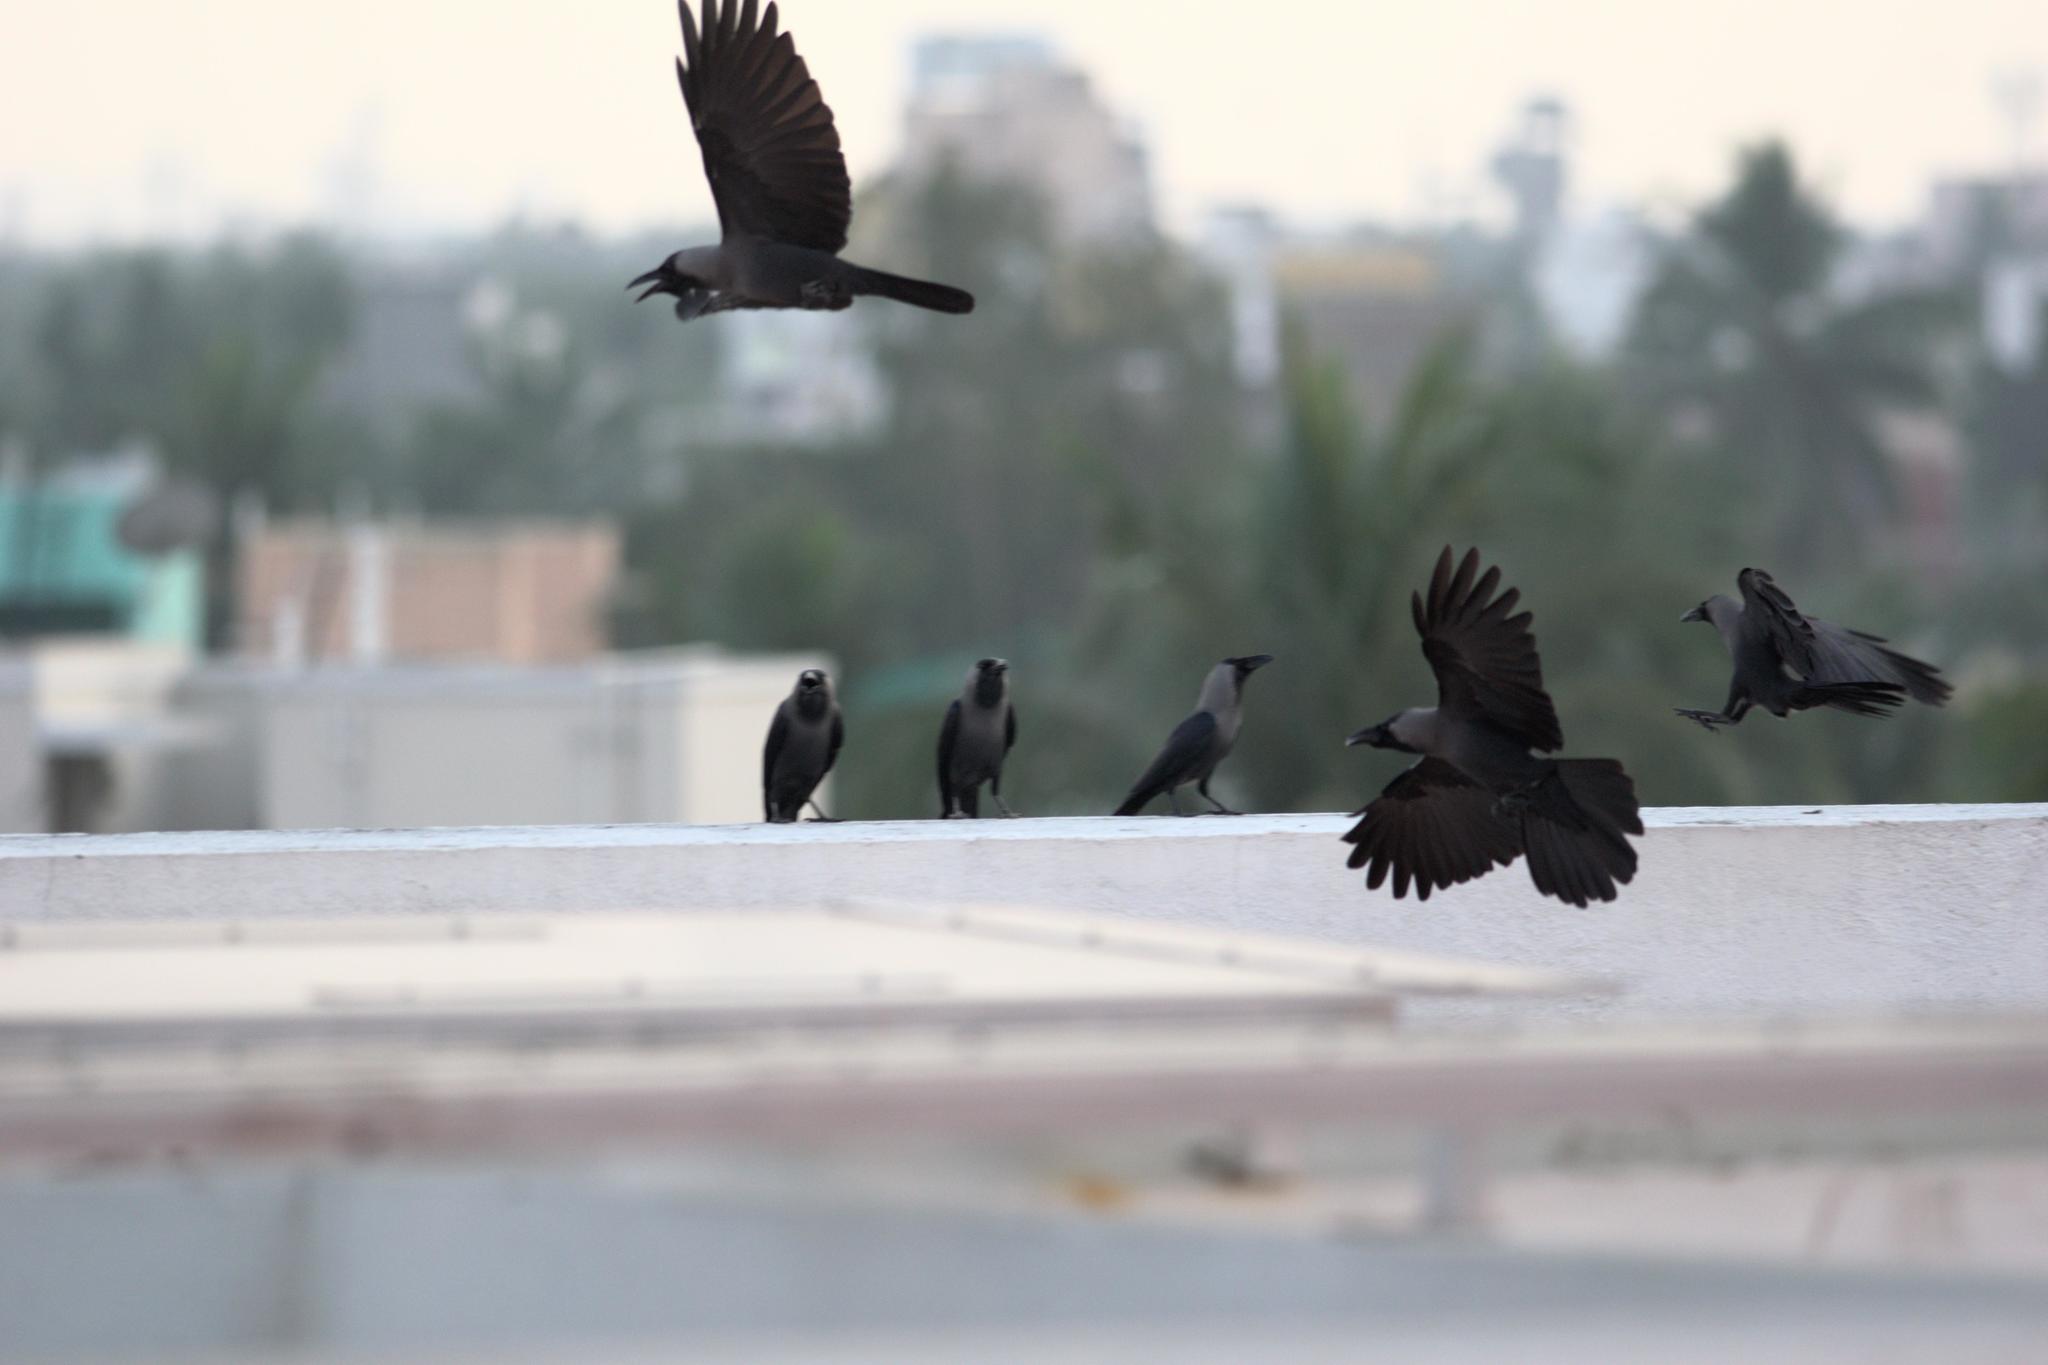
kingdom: Animalia
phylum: Chordata
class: Aves
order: Passeriformes
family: Corvidae
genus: Corvus
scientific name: Corvus splendens
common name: House crow
